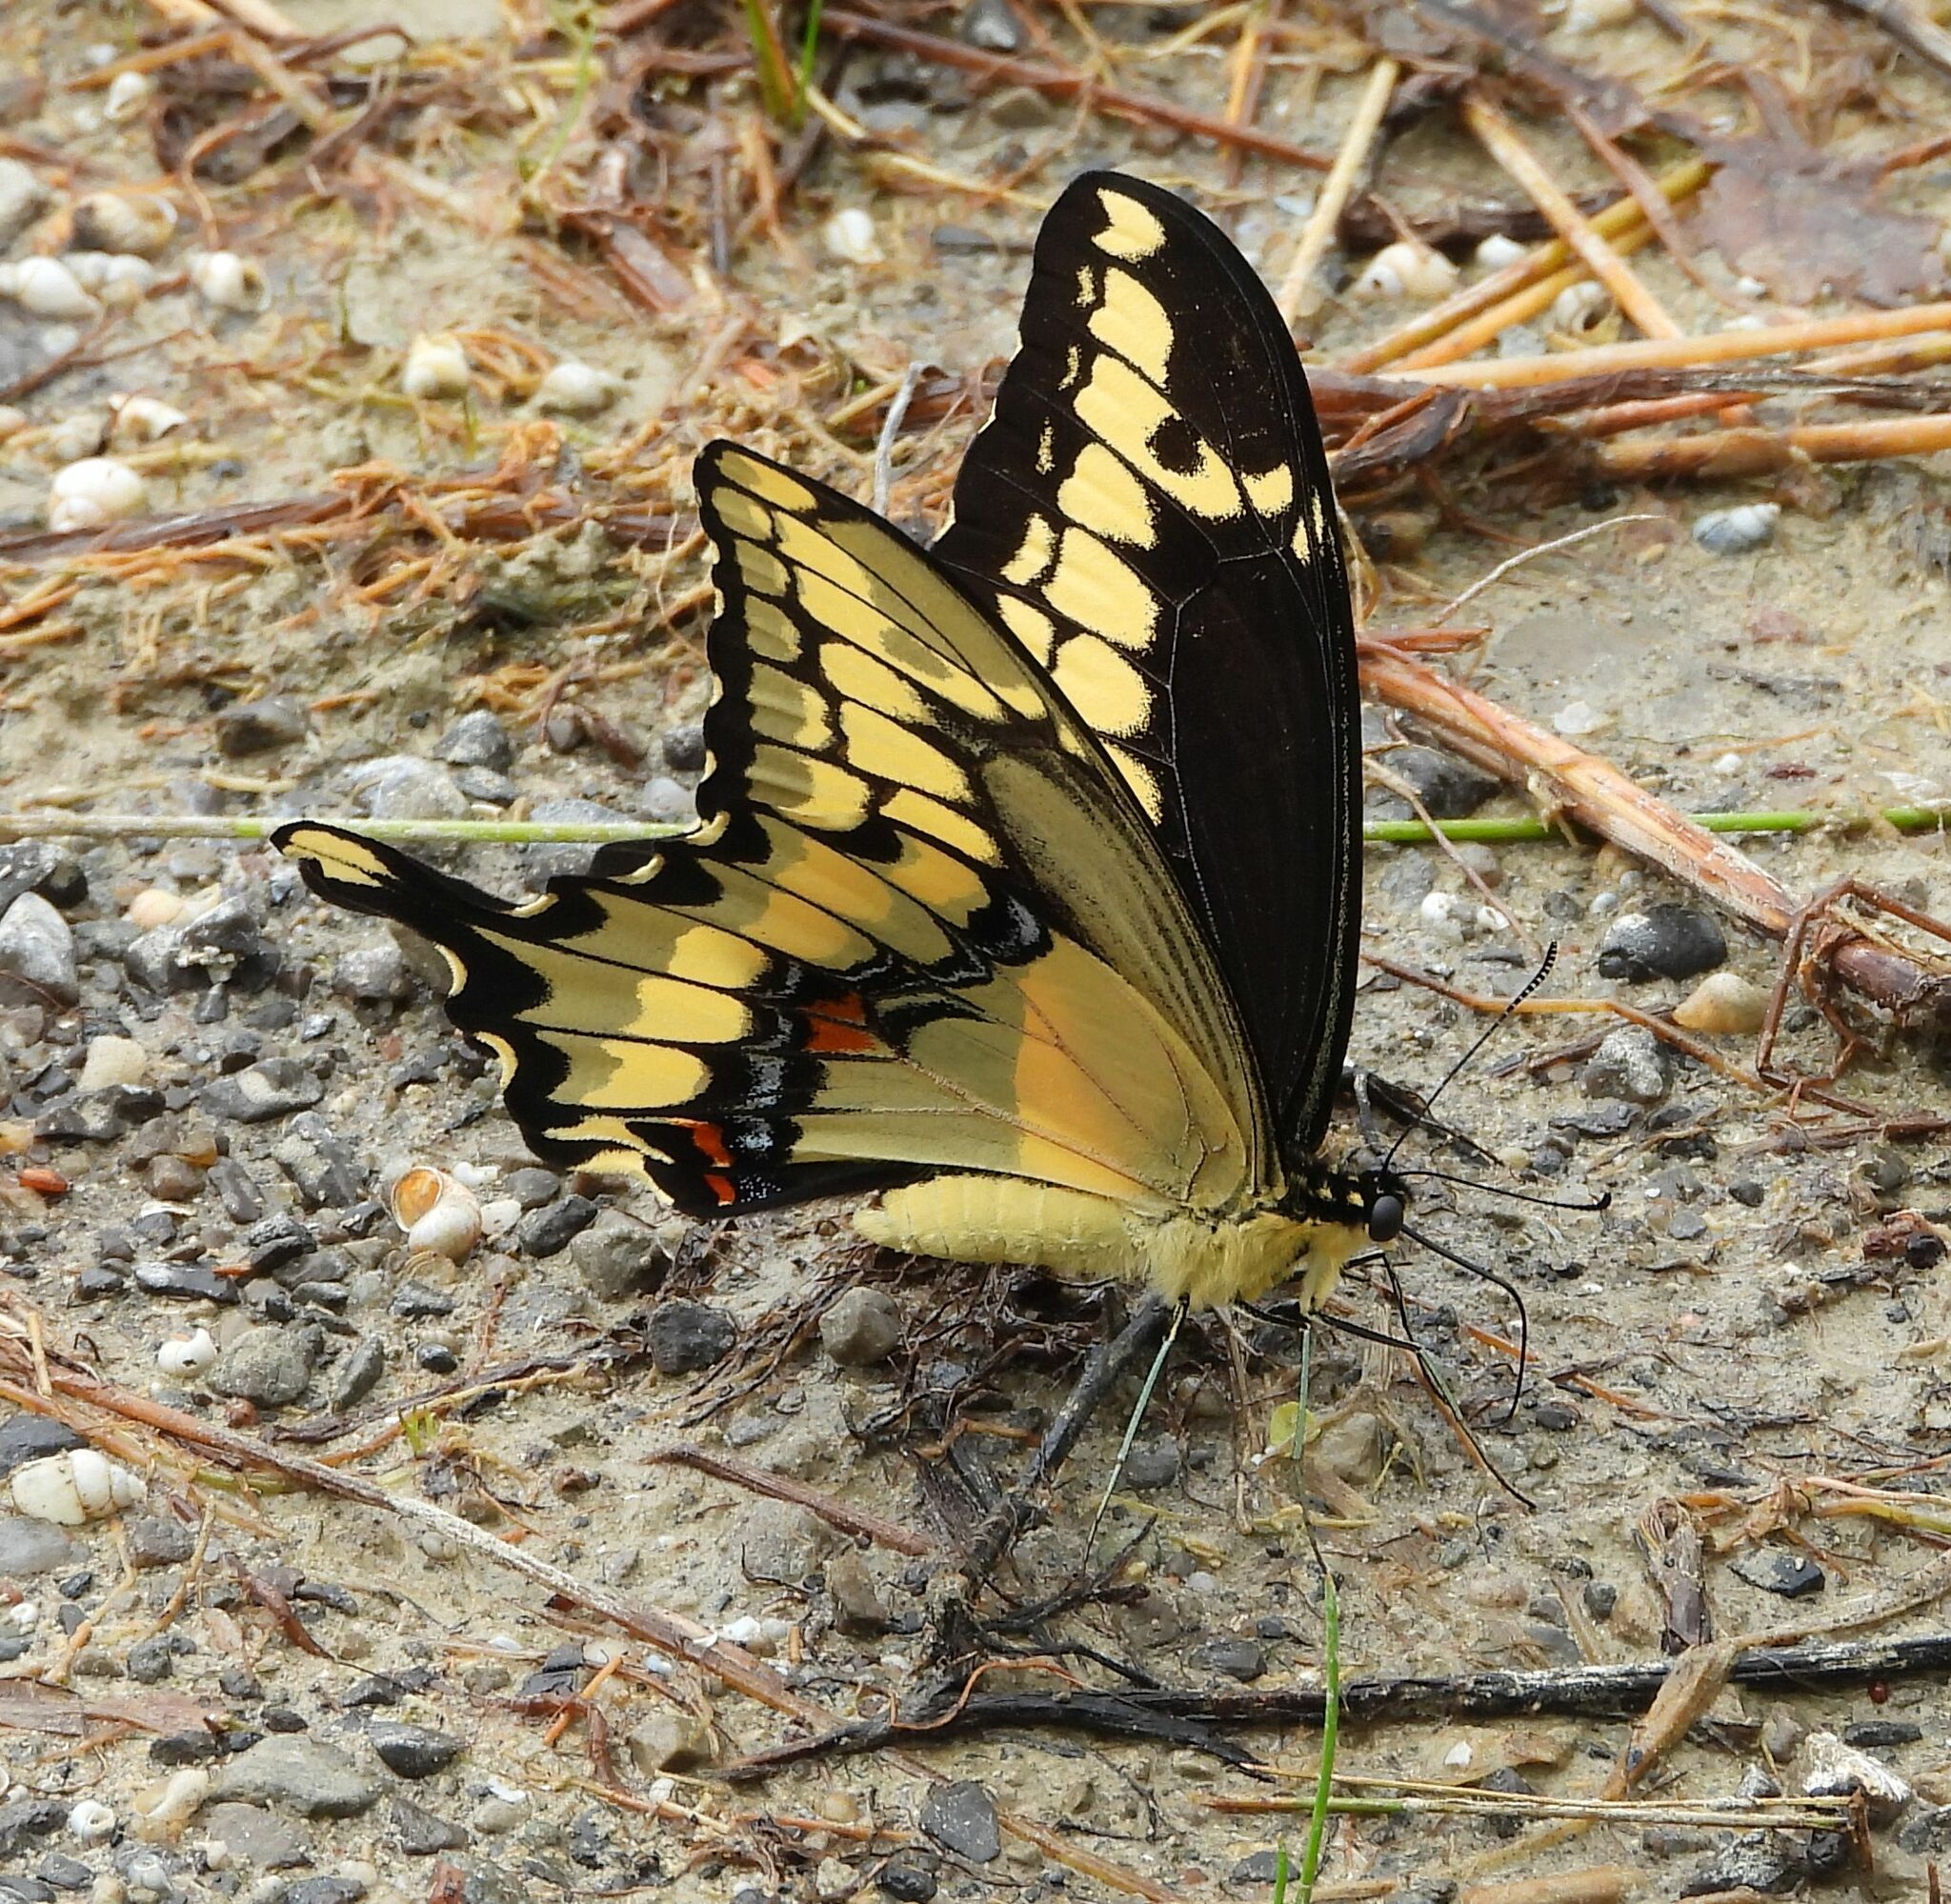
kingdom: Animalia
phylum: Arthropoda
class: Insecta
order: Lepidoptera
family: Papilionidae
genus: Papilio
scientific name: Papilio cresphontes
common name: Giant swallowtail
